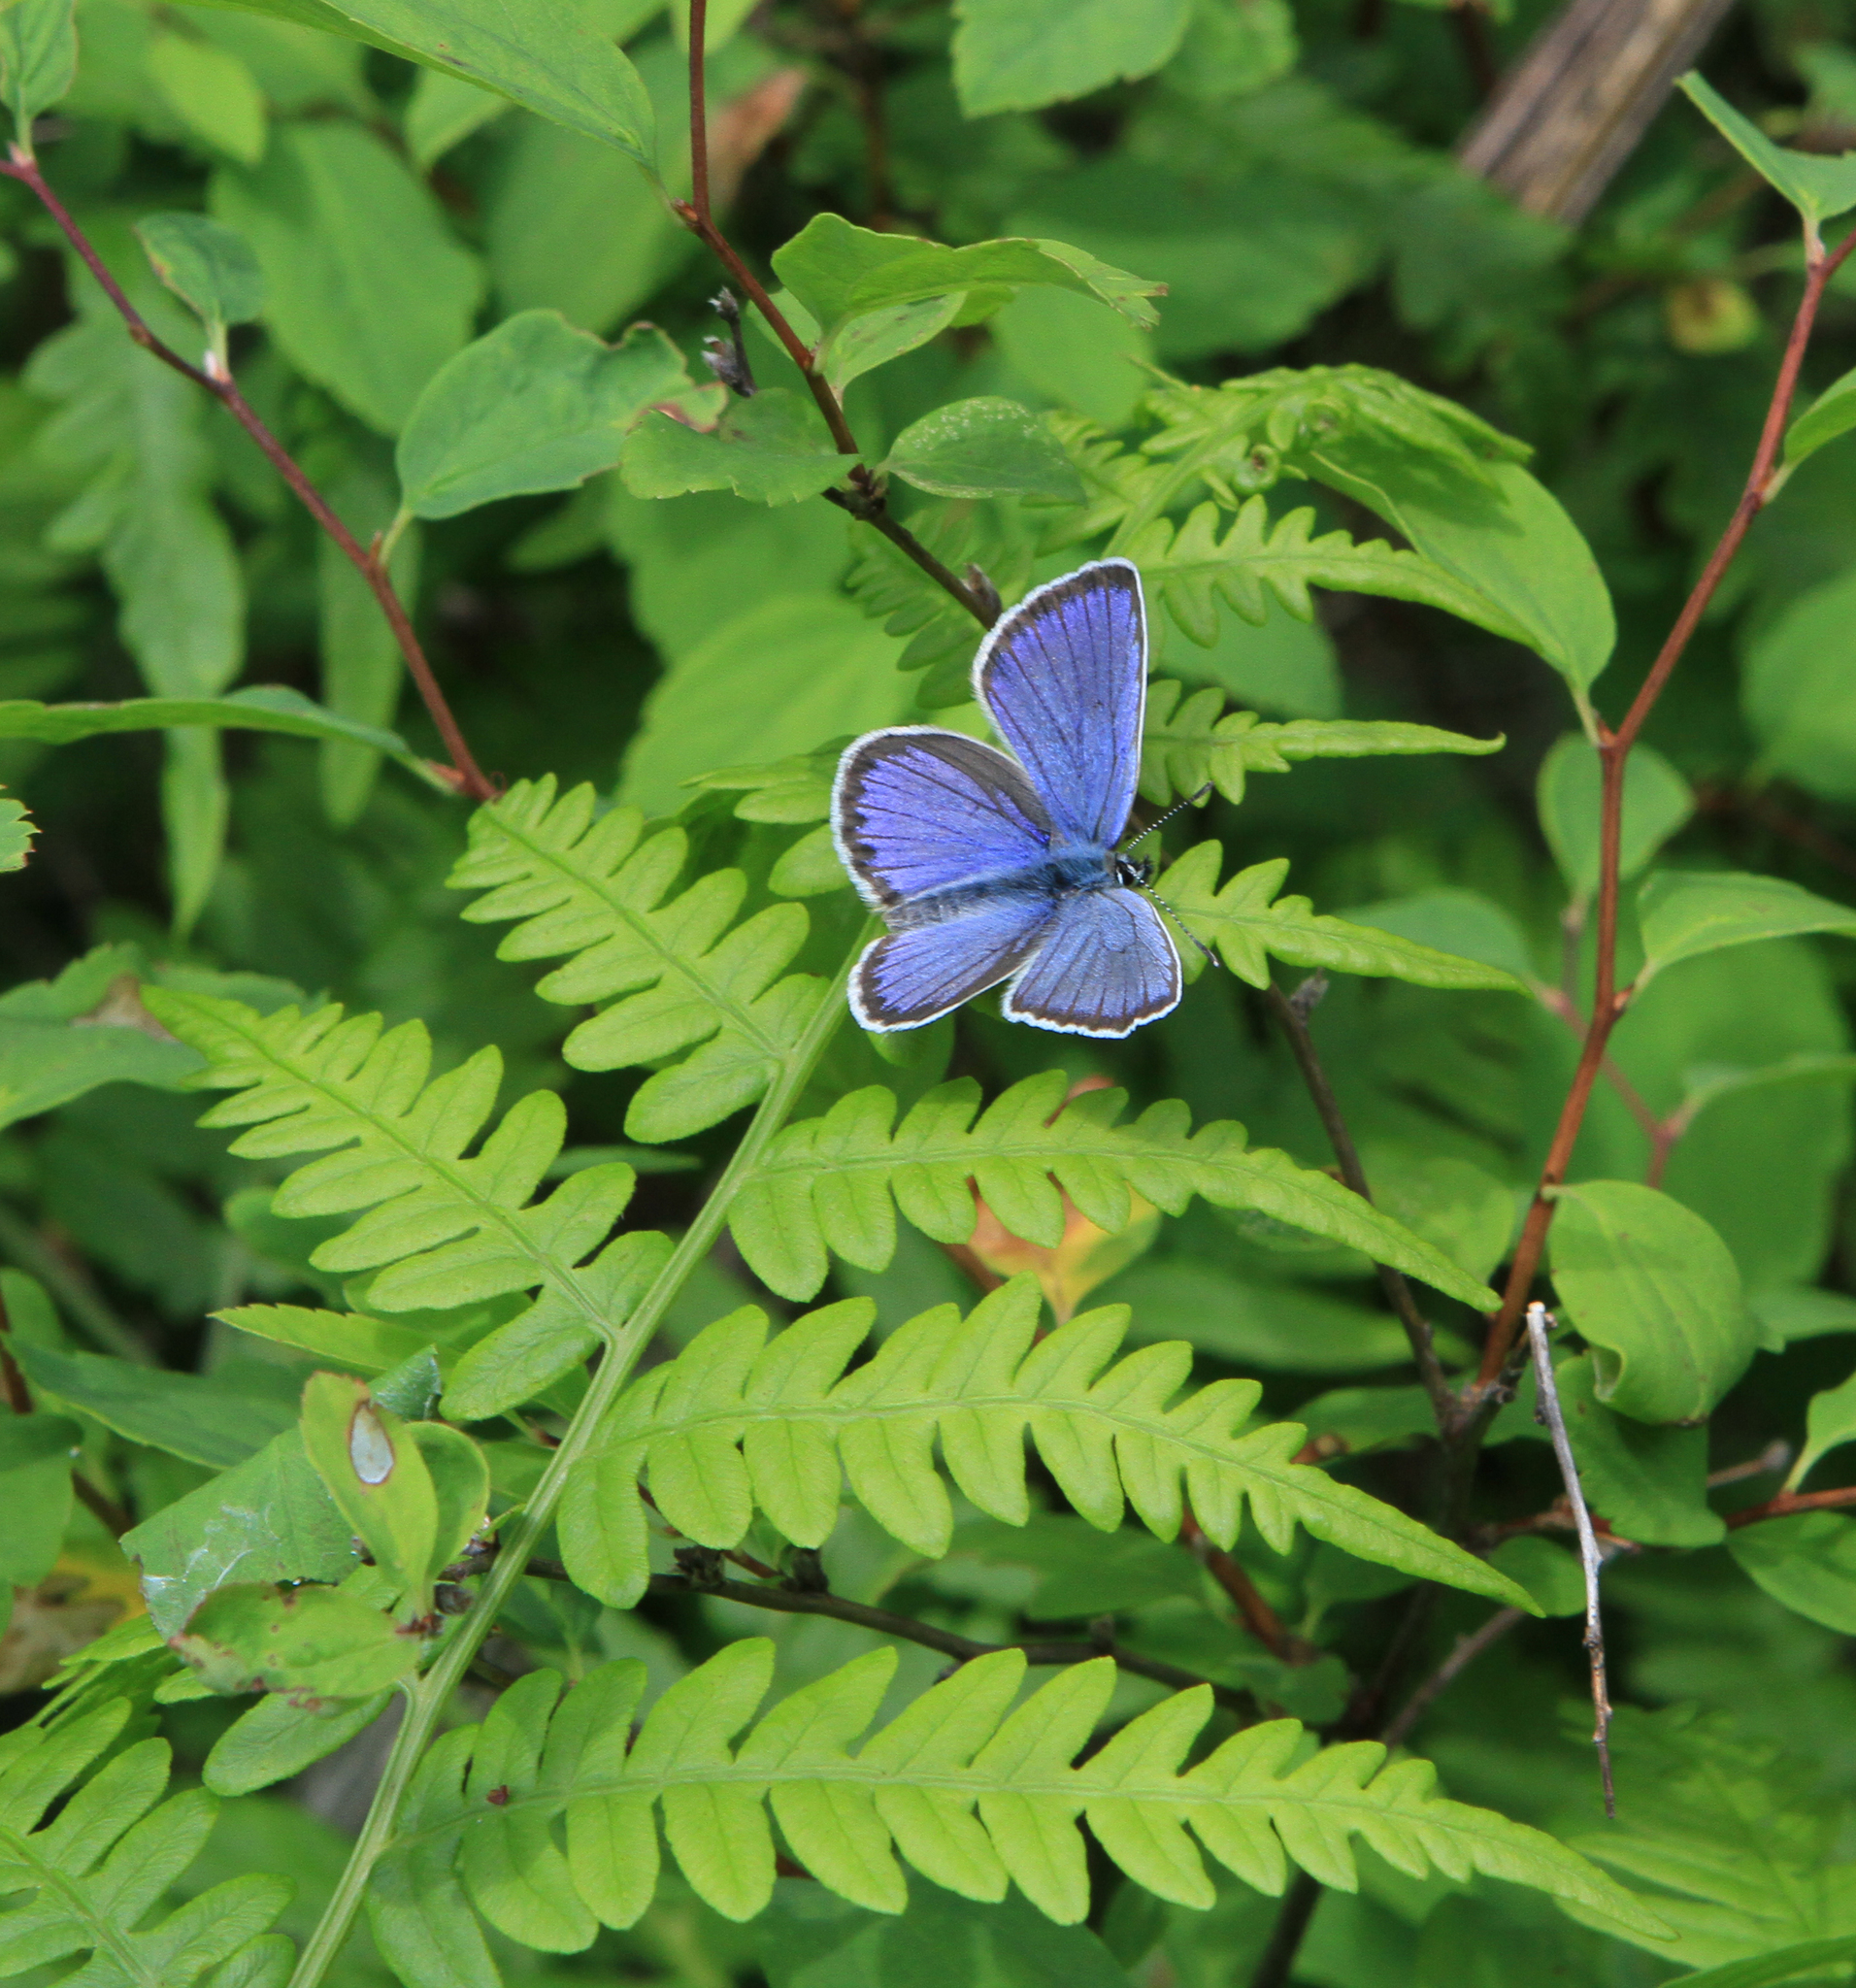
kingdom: Plantae
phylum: Tracheophyta
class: Polypodiopsida
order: Polypodiales
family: Dennstaedtiaceae
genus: Pteridium
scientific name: Pteridium aquilinum
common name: Bracken
